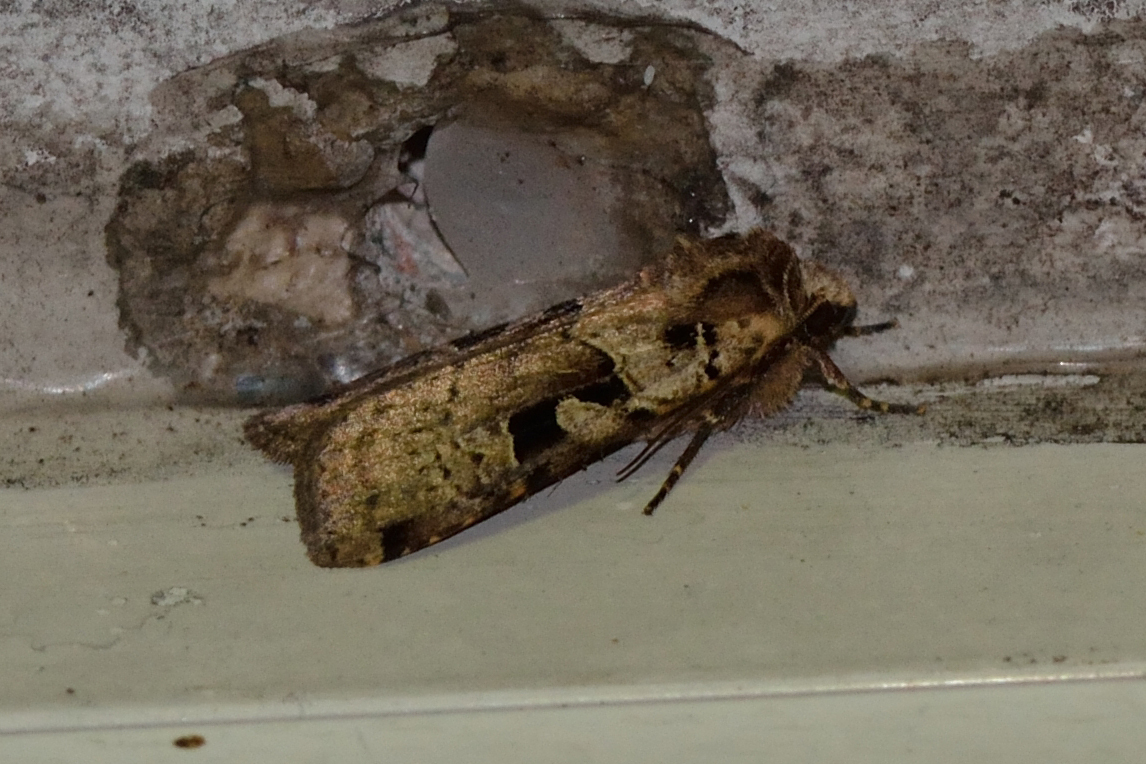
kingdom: Animalia
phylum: Arthropoda
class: Insecta
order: Lepidoptera
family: Noctuidae
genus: Xestia
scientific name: Xestia triangulum
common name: Double square-spot
